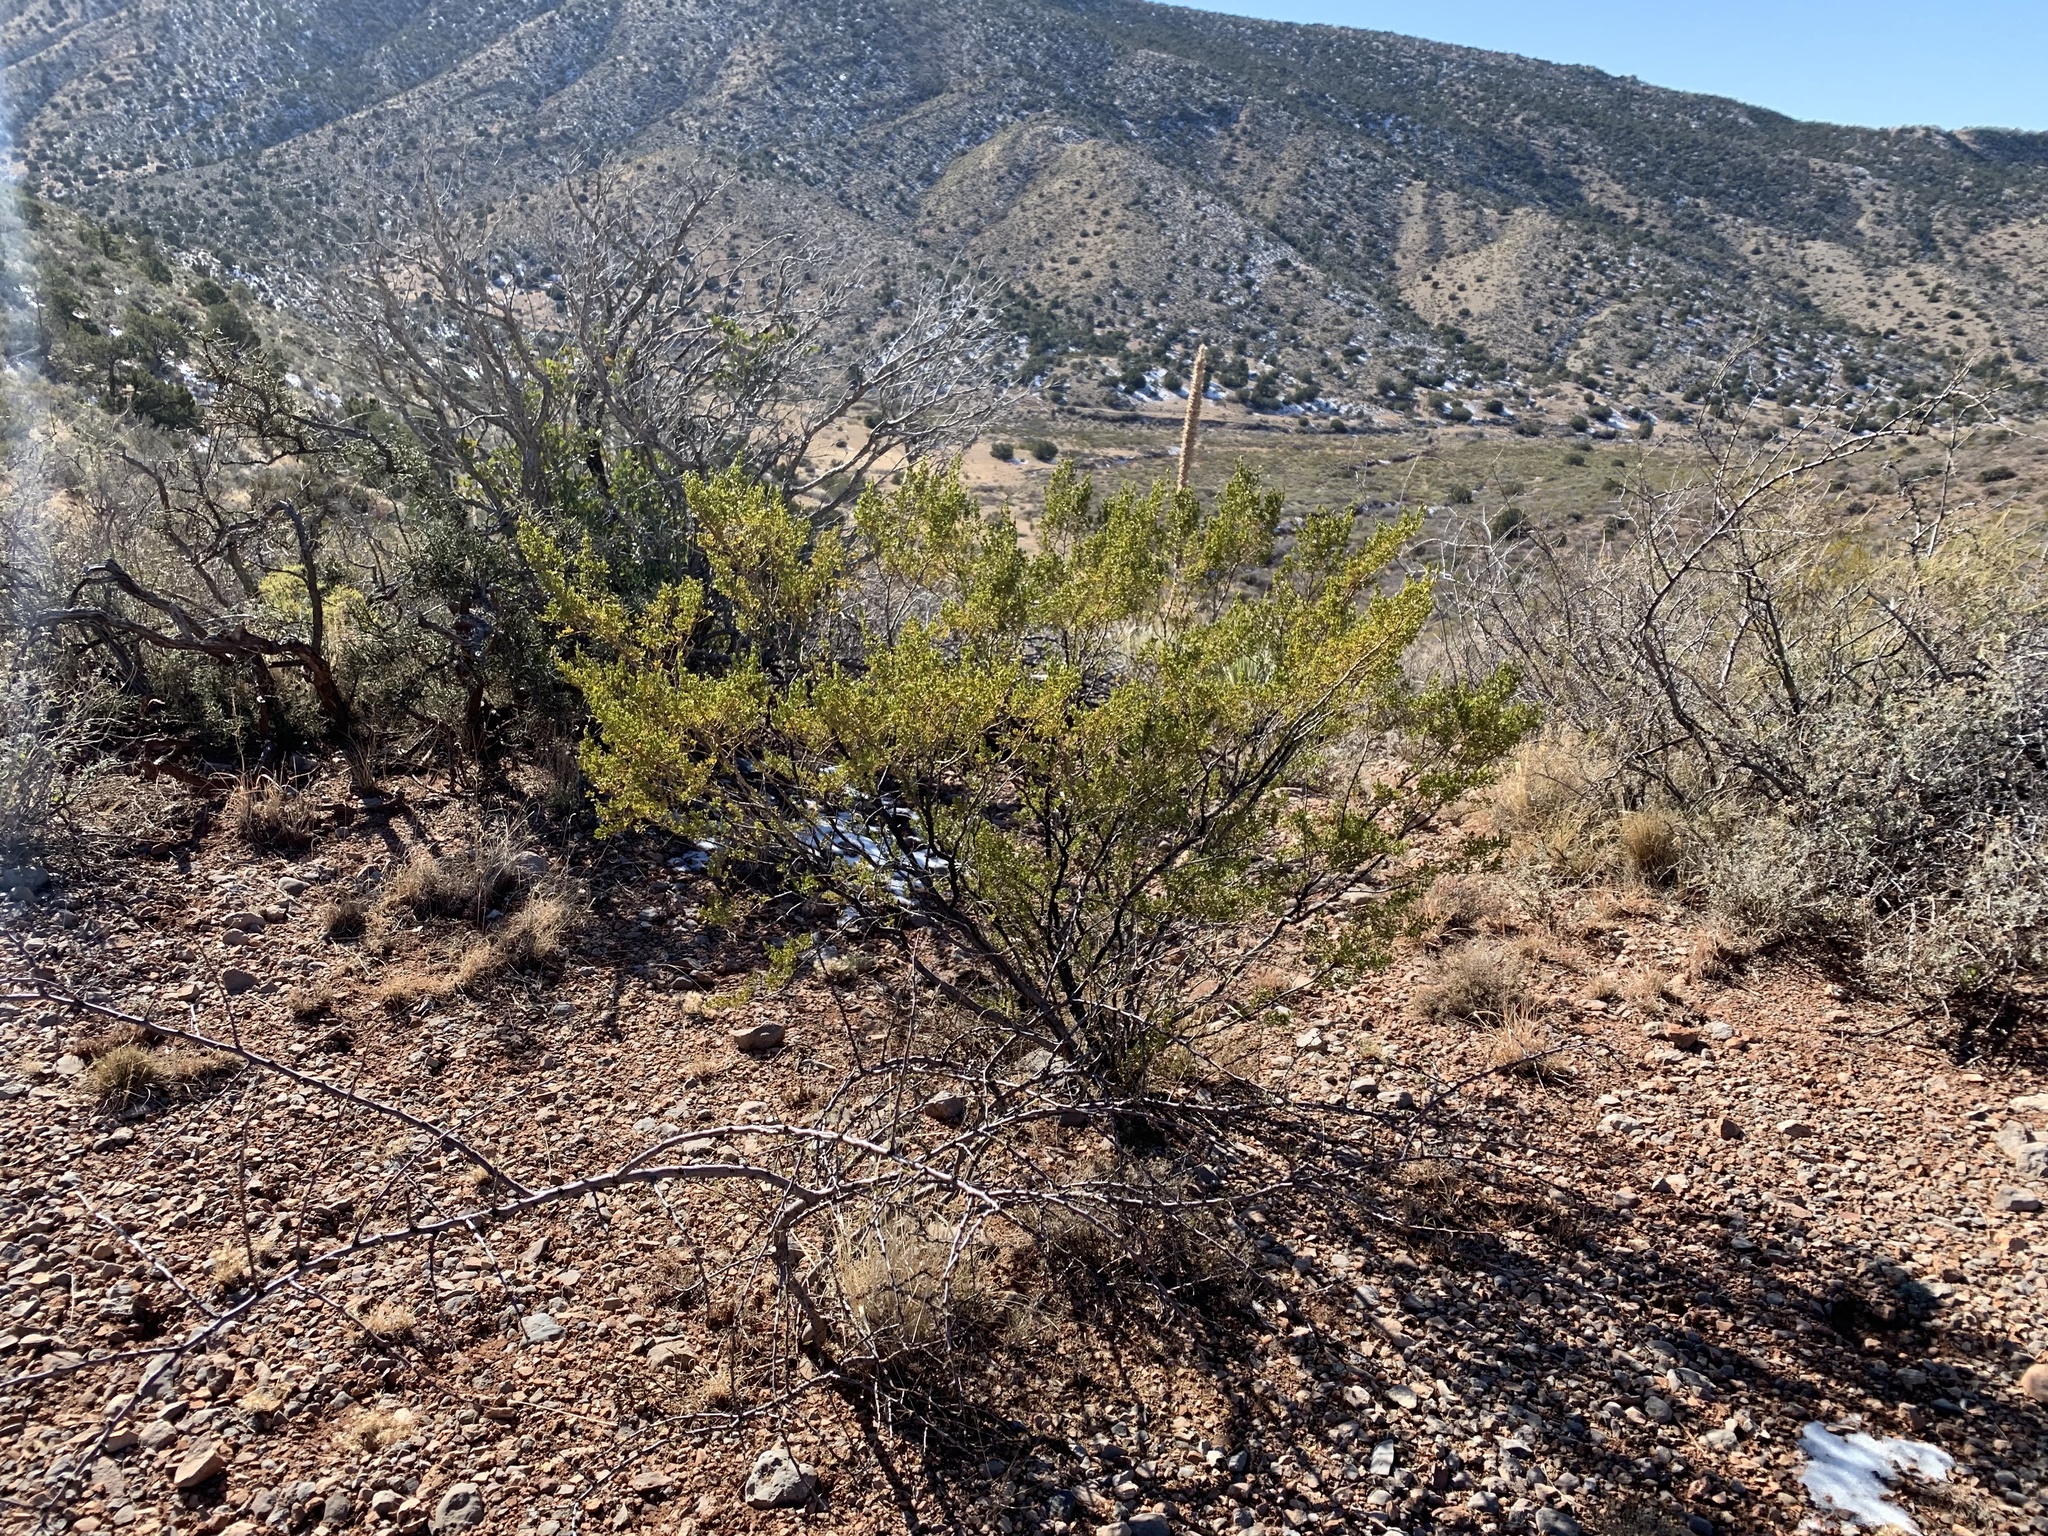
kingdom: Plantae
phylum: Tracheophyta
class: Magnoliopsida
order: Zygophyllales
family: Zygophyllaceae
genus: Larrea
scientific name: Larrea tridentata
